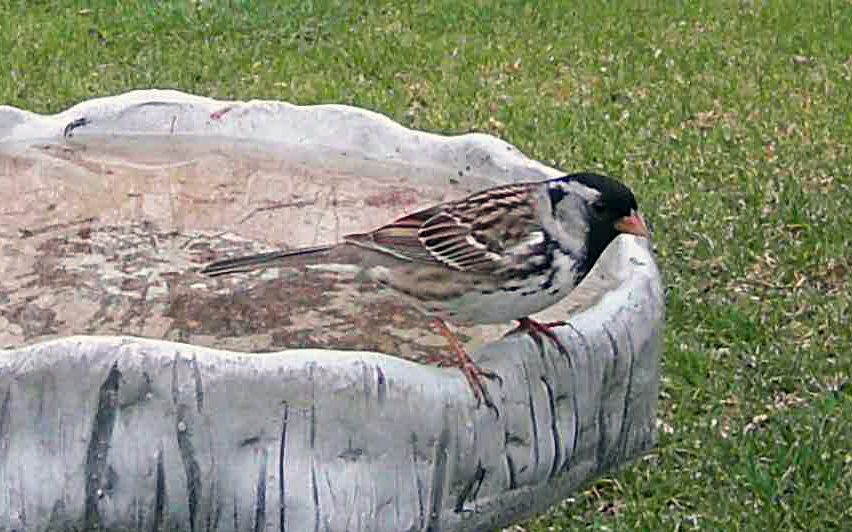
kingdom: Animalia
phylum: Chordata
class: Aves
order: Passeriformes
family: Passerellidae
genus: Zonotrichia
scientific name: Zonotrichia querula
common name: Harris's sparrow
